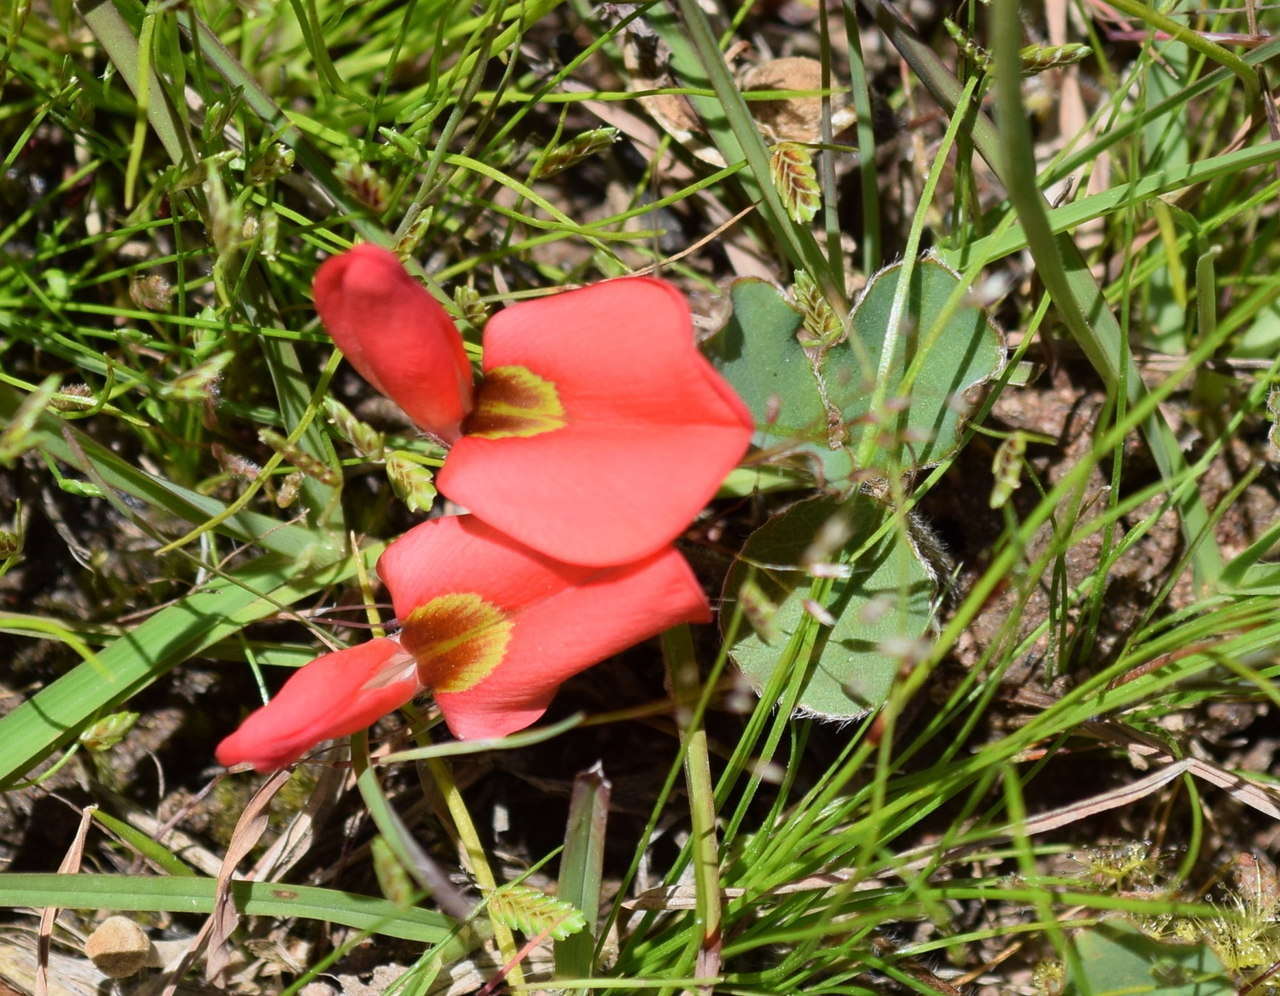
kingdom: Plantae
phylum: Tracheophyta
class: Magnoliopsida
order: Fabales
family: Fabaceae
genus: Kennedia
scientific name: Kennedia prostrata
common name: Running-postman
